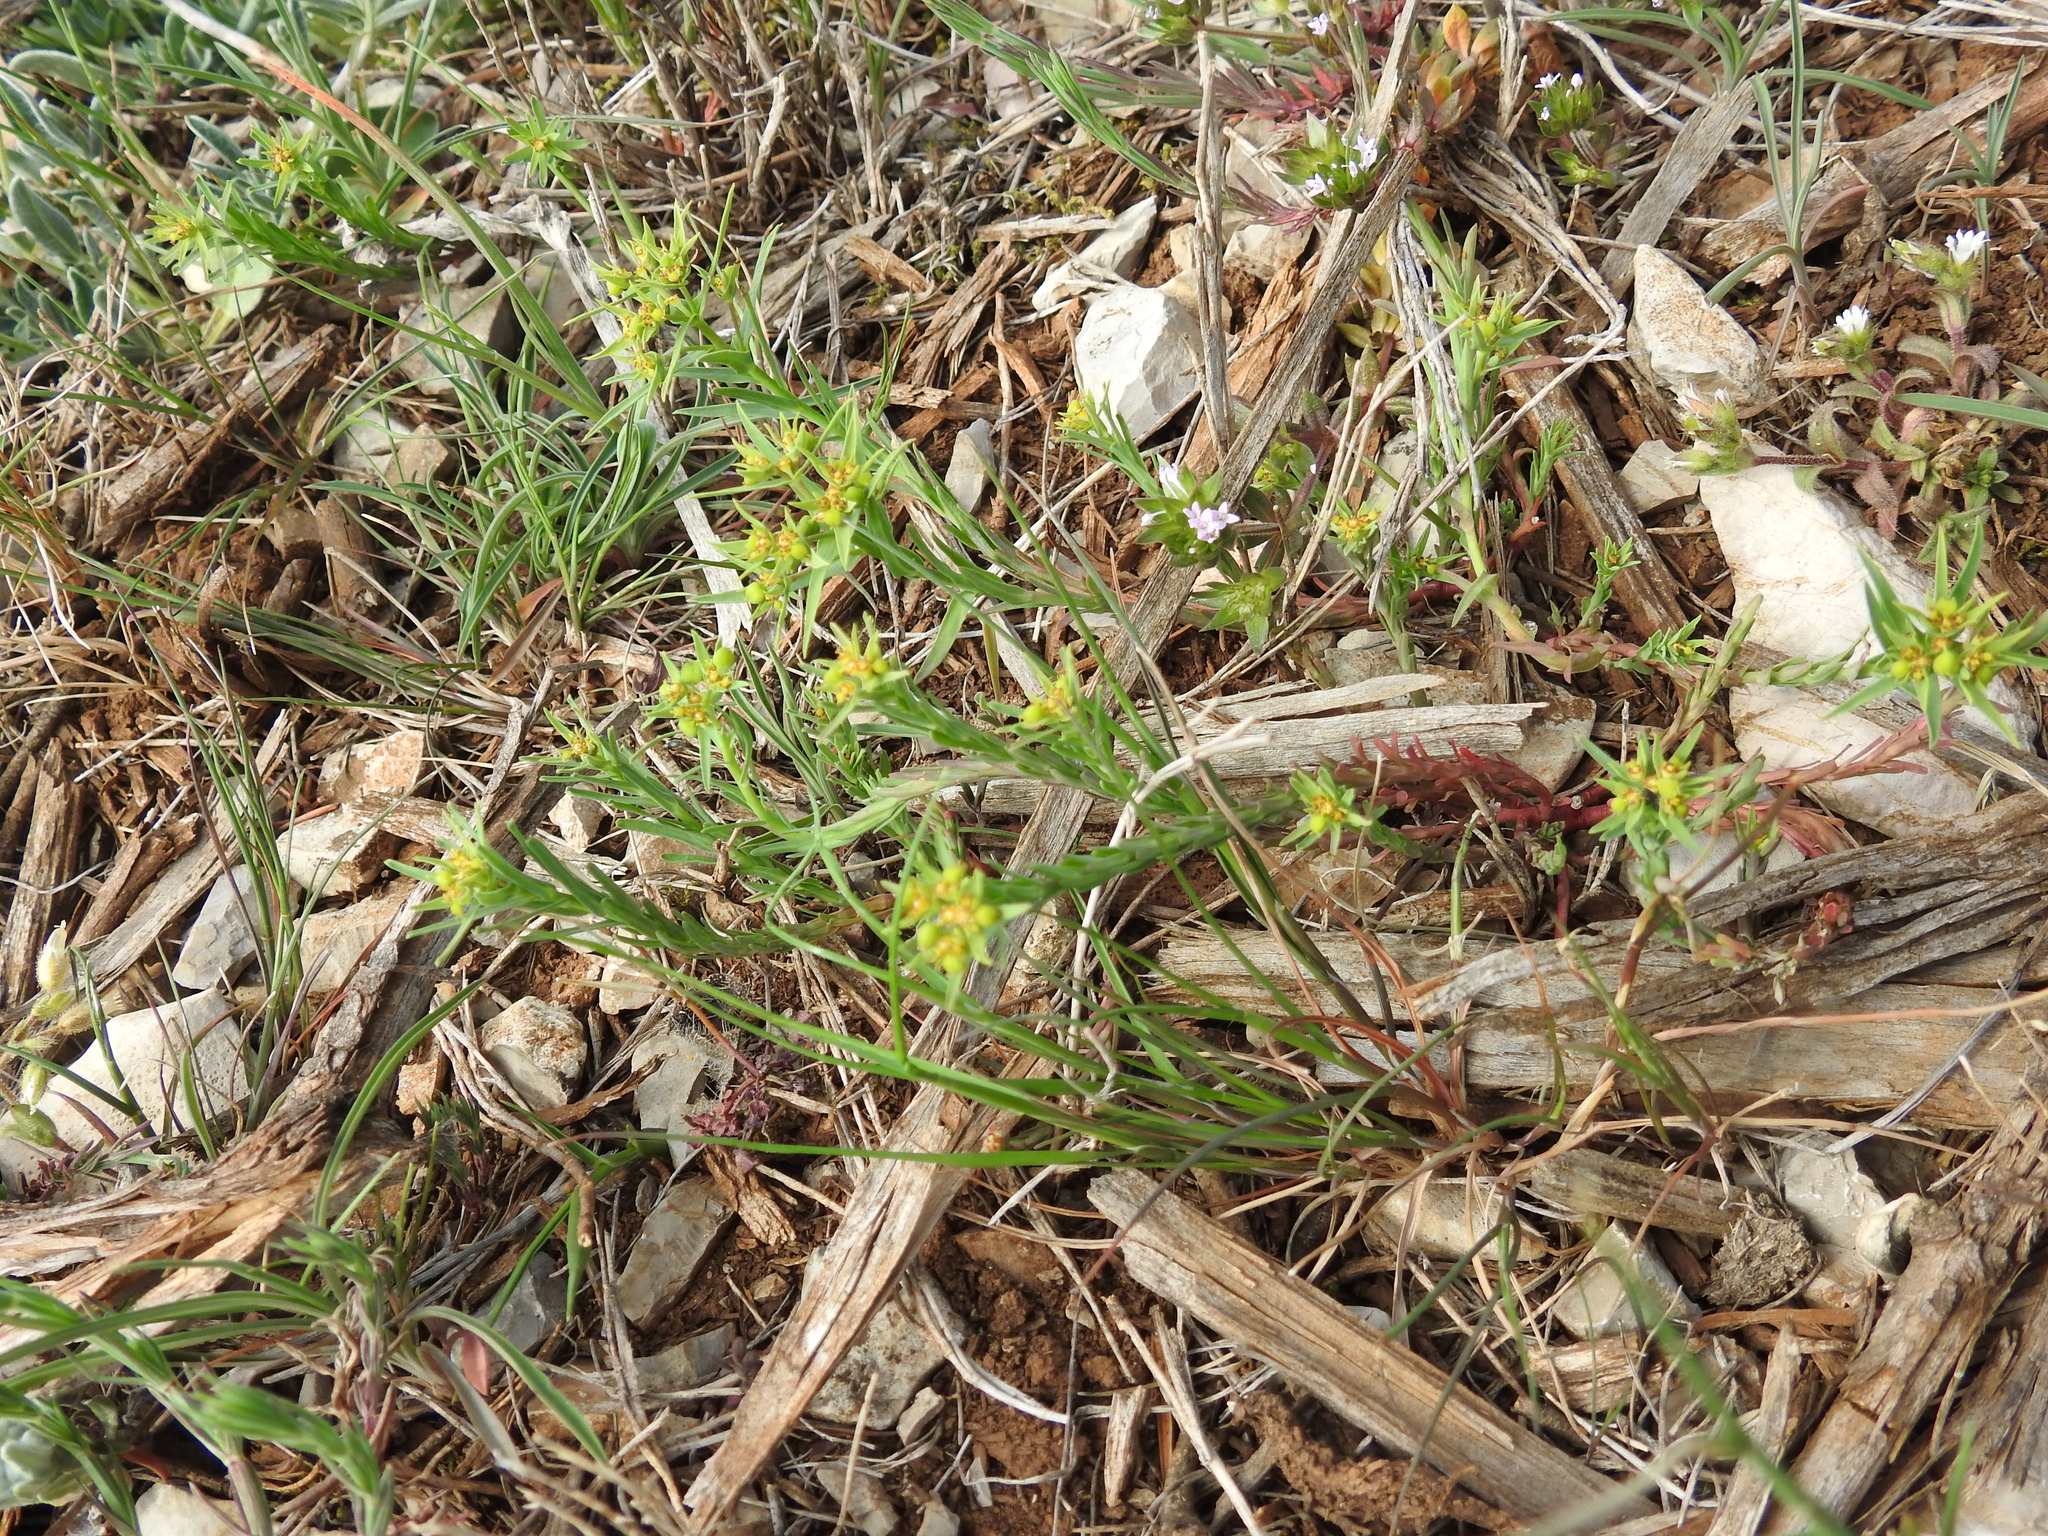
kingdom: Plantae
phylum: Tracheophyta
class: Magnoliopsida
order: Malpighiales
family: Euphorbiaceae
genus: Euphorbia
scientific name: Euphorbia exigua
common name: Dwarf spurge
